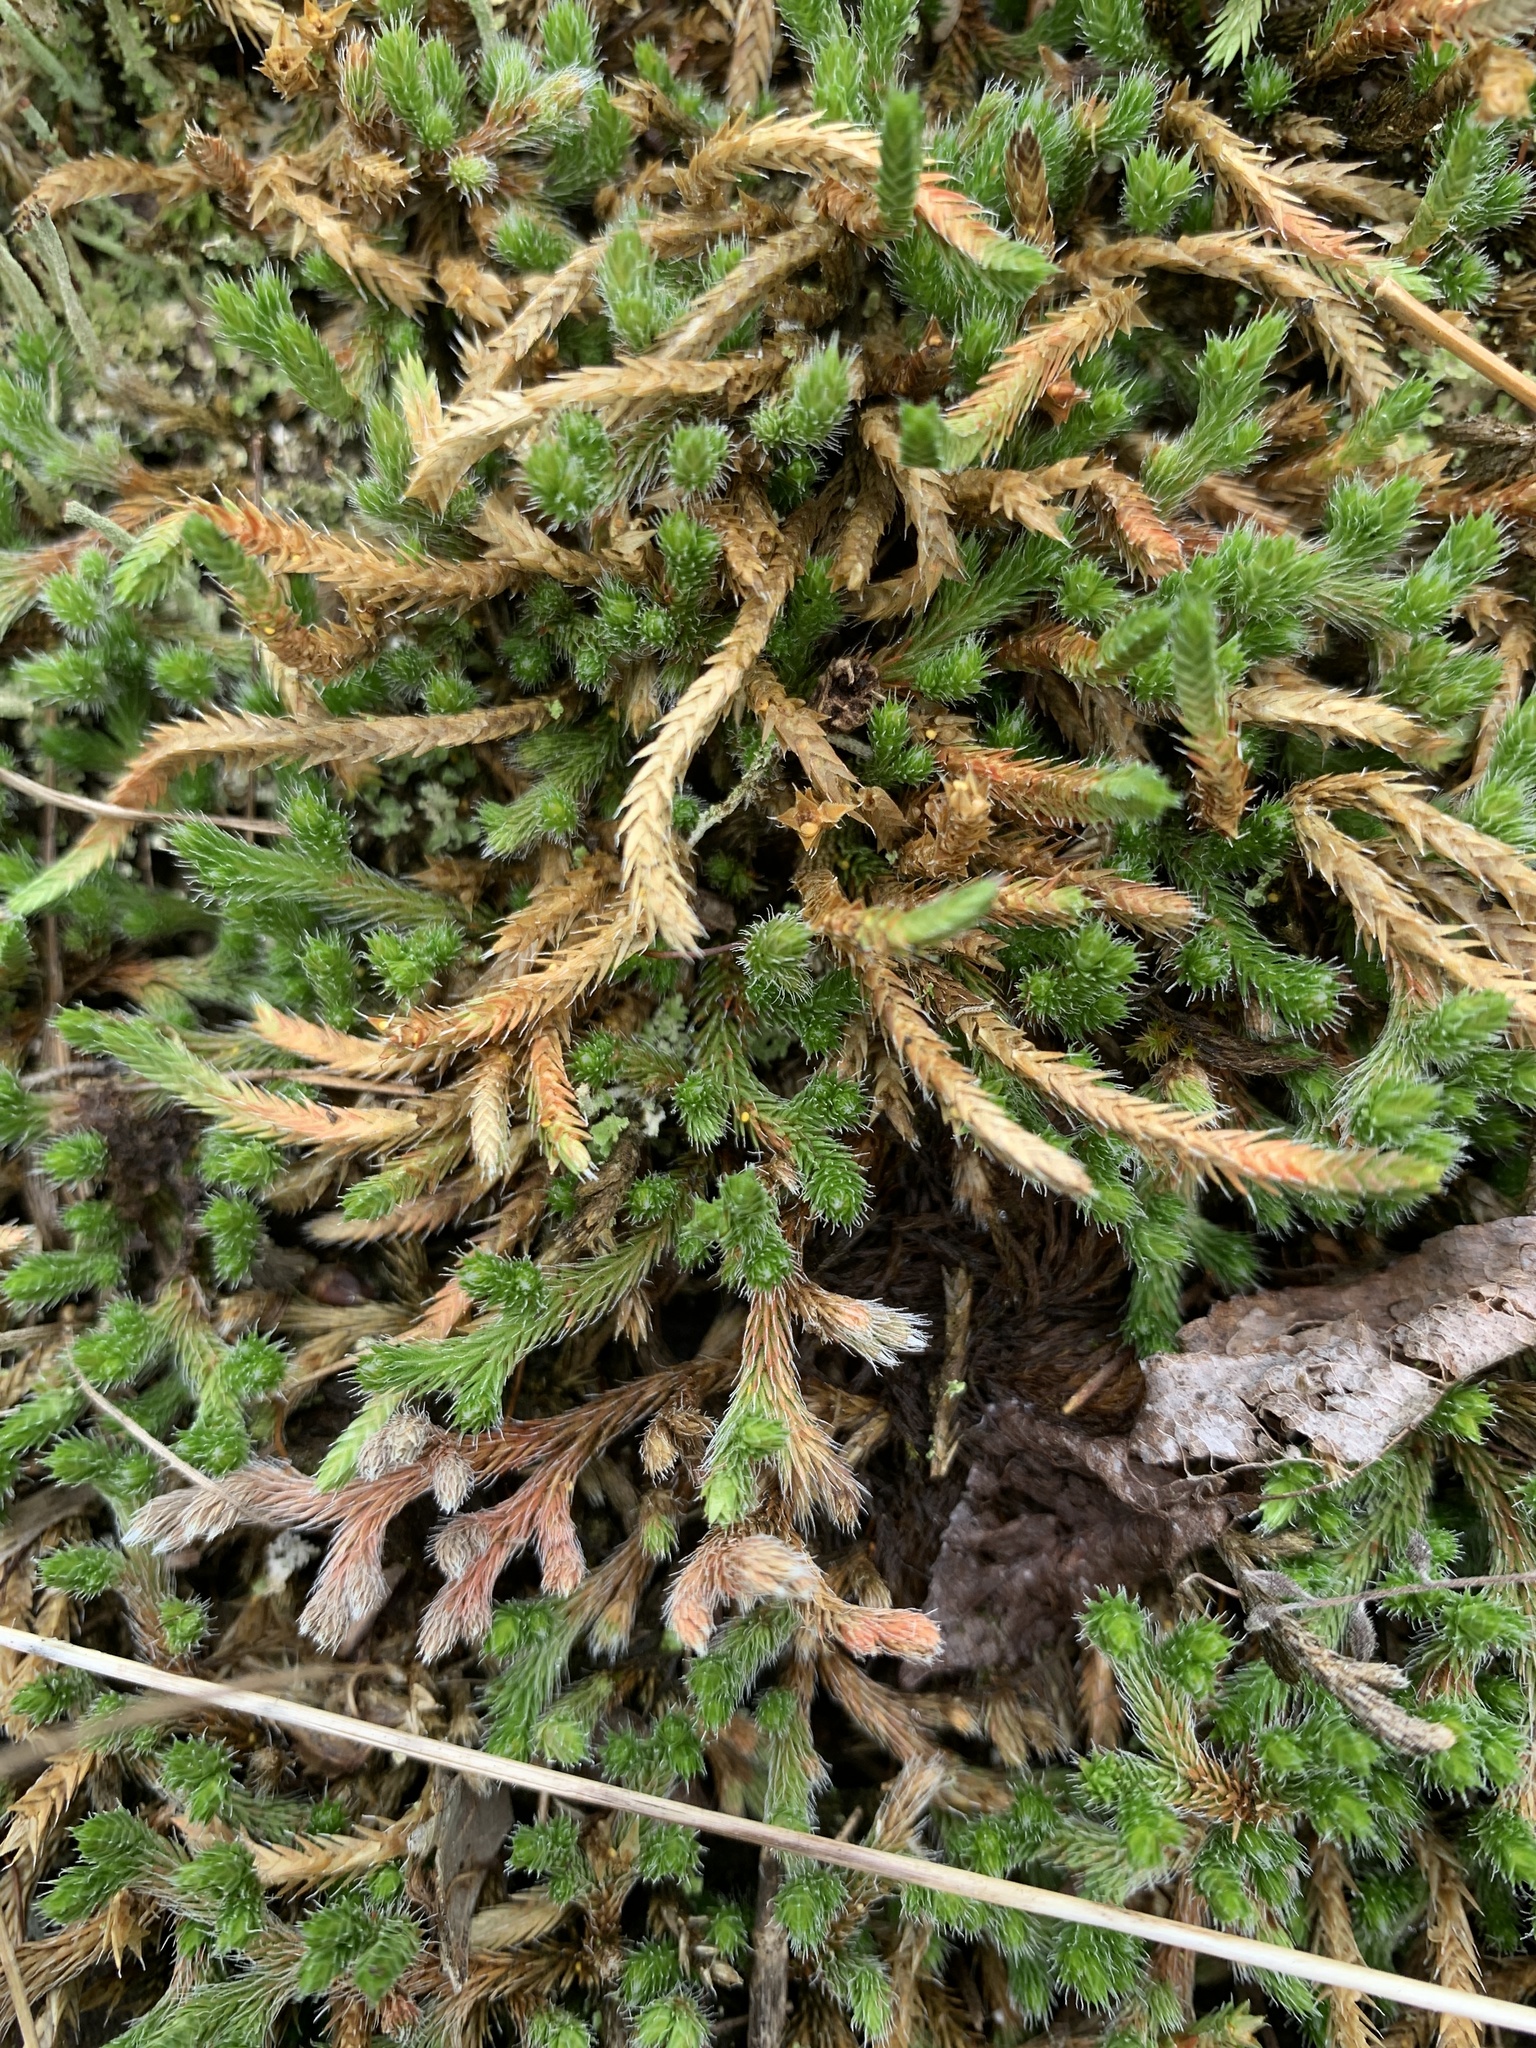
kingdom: Plantae
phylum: Tracheophyta
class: Lycopodiopsida
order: Selaginellales
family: Selaginellaceae
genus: Selaginella
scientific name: Selaginella rupestris
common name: Dwarf spikemoss
